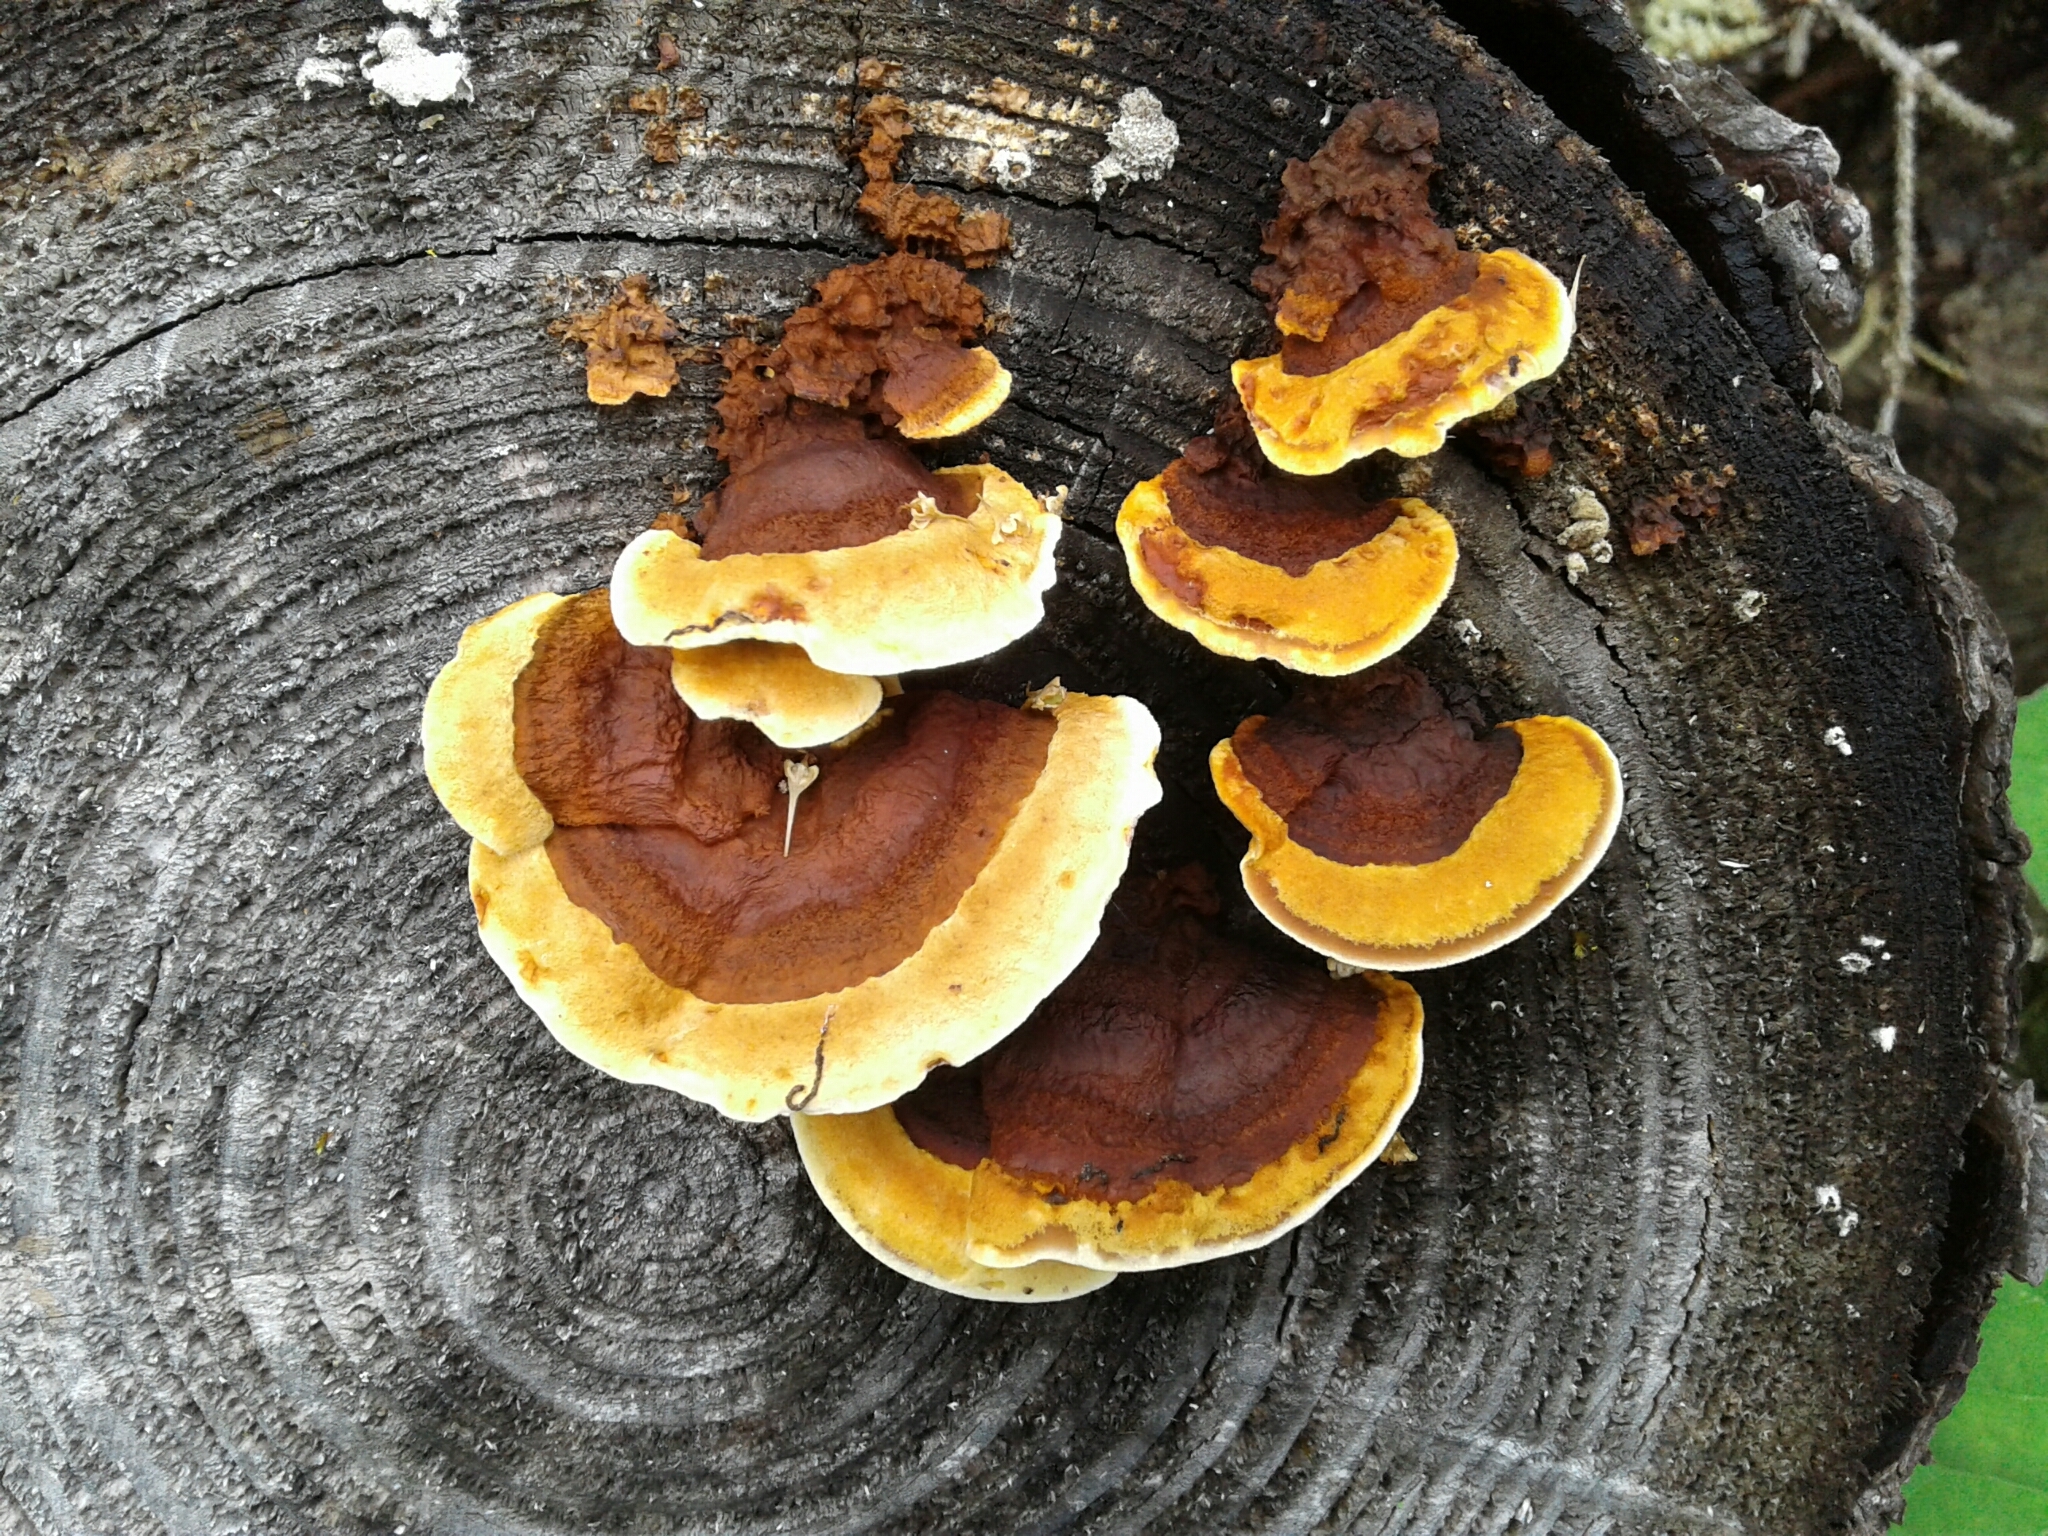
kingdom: Fungi
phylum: Basidiomycota
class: Agaricomycetes
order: Gloeophyllales
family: Gloeophyllaceae
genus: Gloeophyllum
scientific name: Gloeophyllum sepiarium
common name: Conifer mazegill
